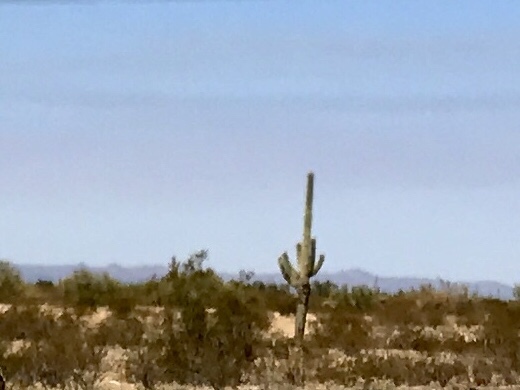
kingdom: Plantae
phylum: Tracheophyta
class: Magnoliopsida
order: Caryophyllales
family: Cactaceae
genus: Carnegiea
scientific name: Carnegiea gigantea
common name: Saguaro
